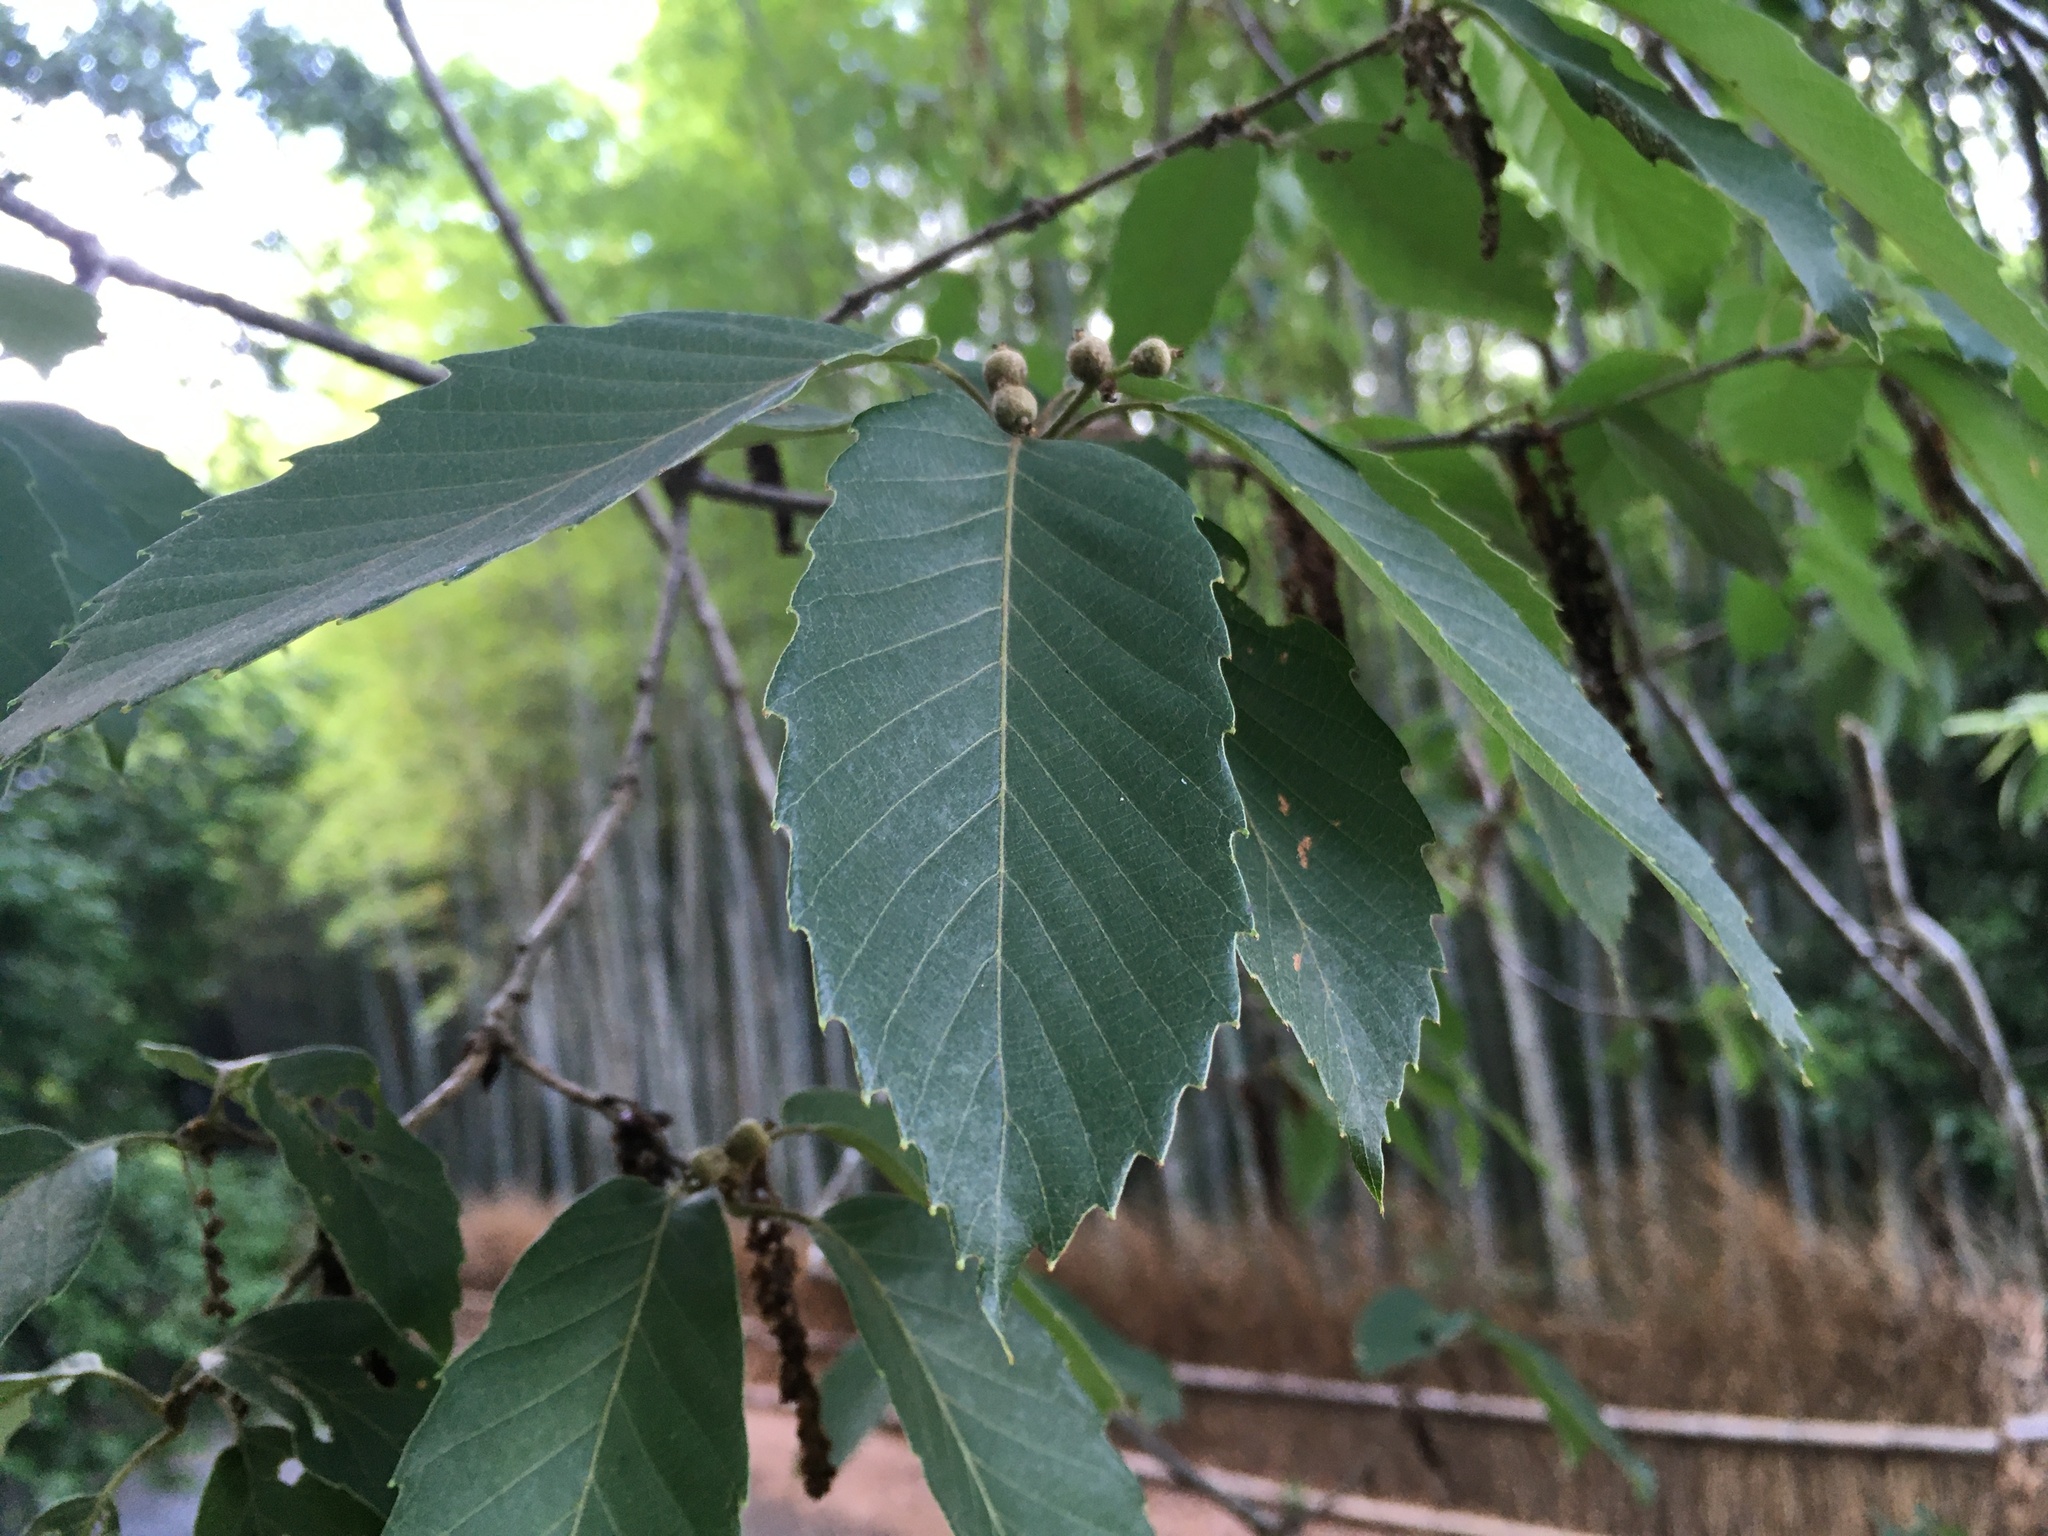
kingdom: Plantae
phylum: Tracheophyta
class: Magnoliopsida
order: Fagales
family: Fagaceae
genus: Quercus
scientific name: Quercus serrata
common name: Bao li
